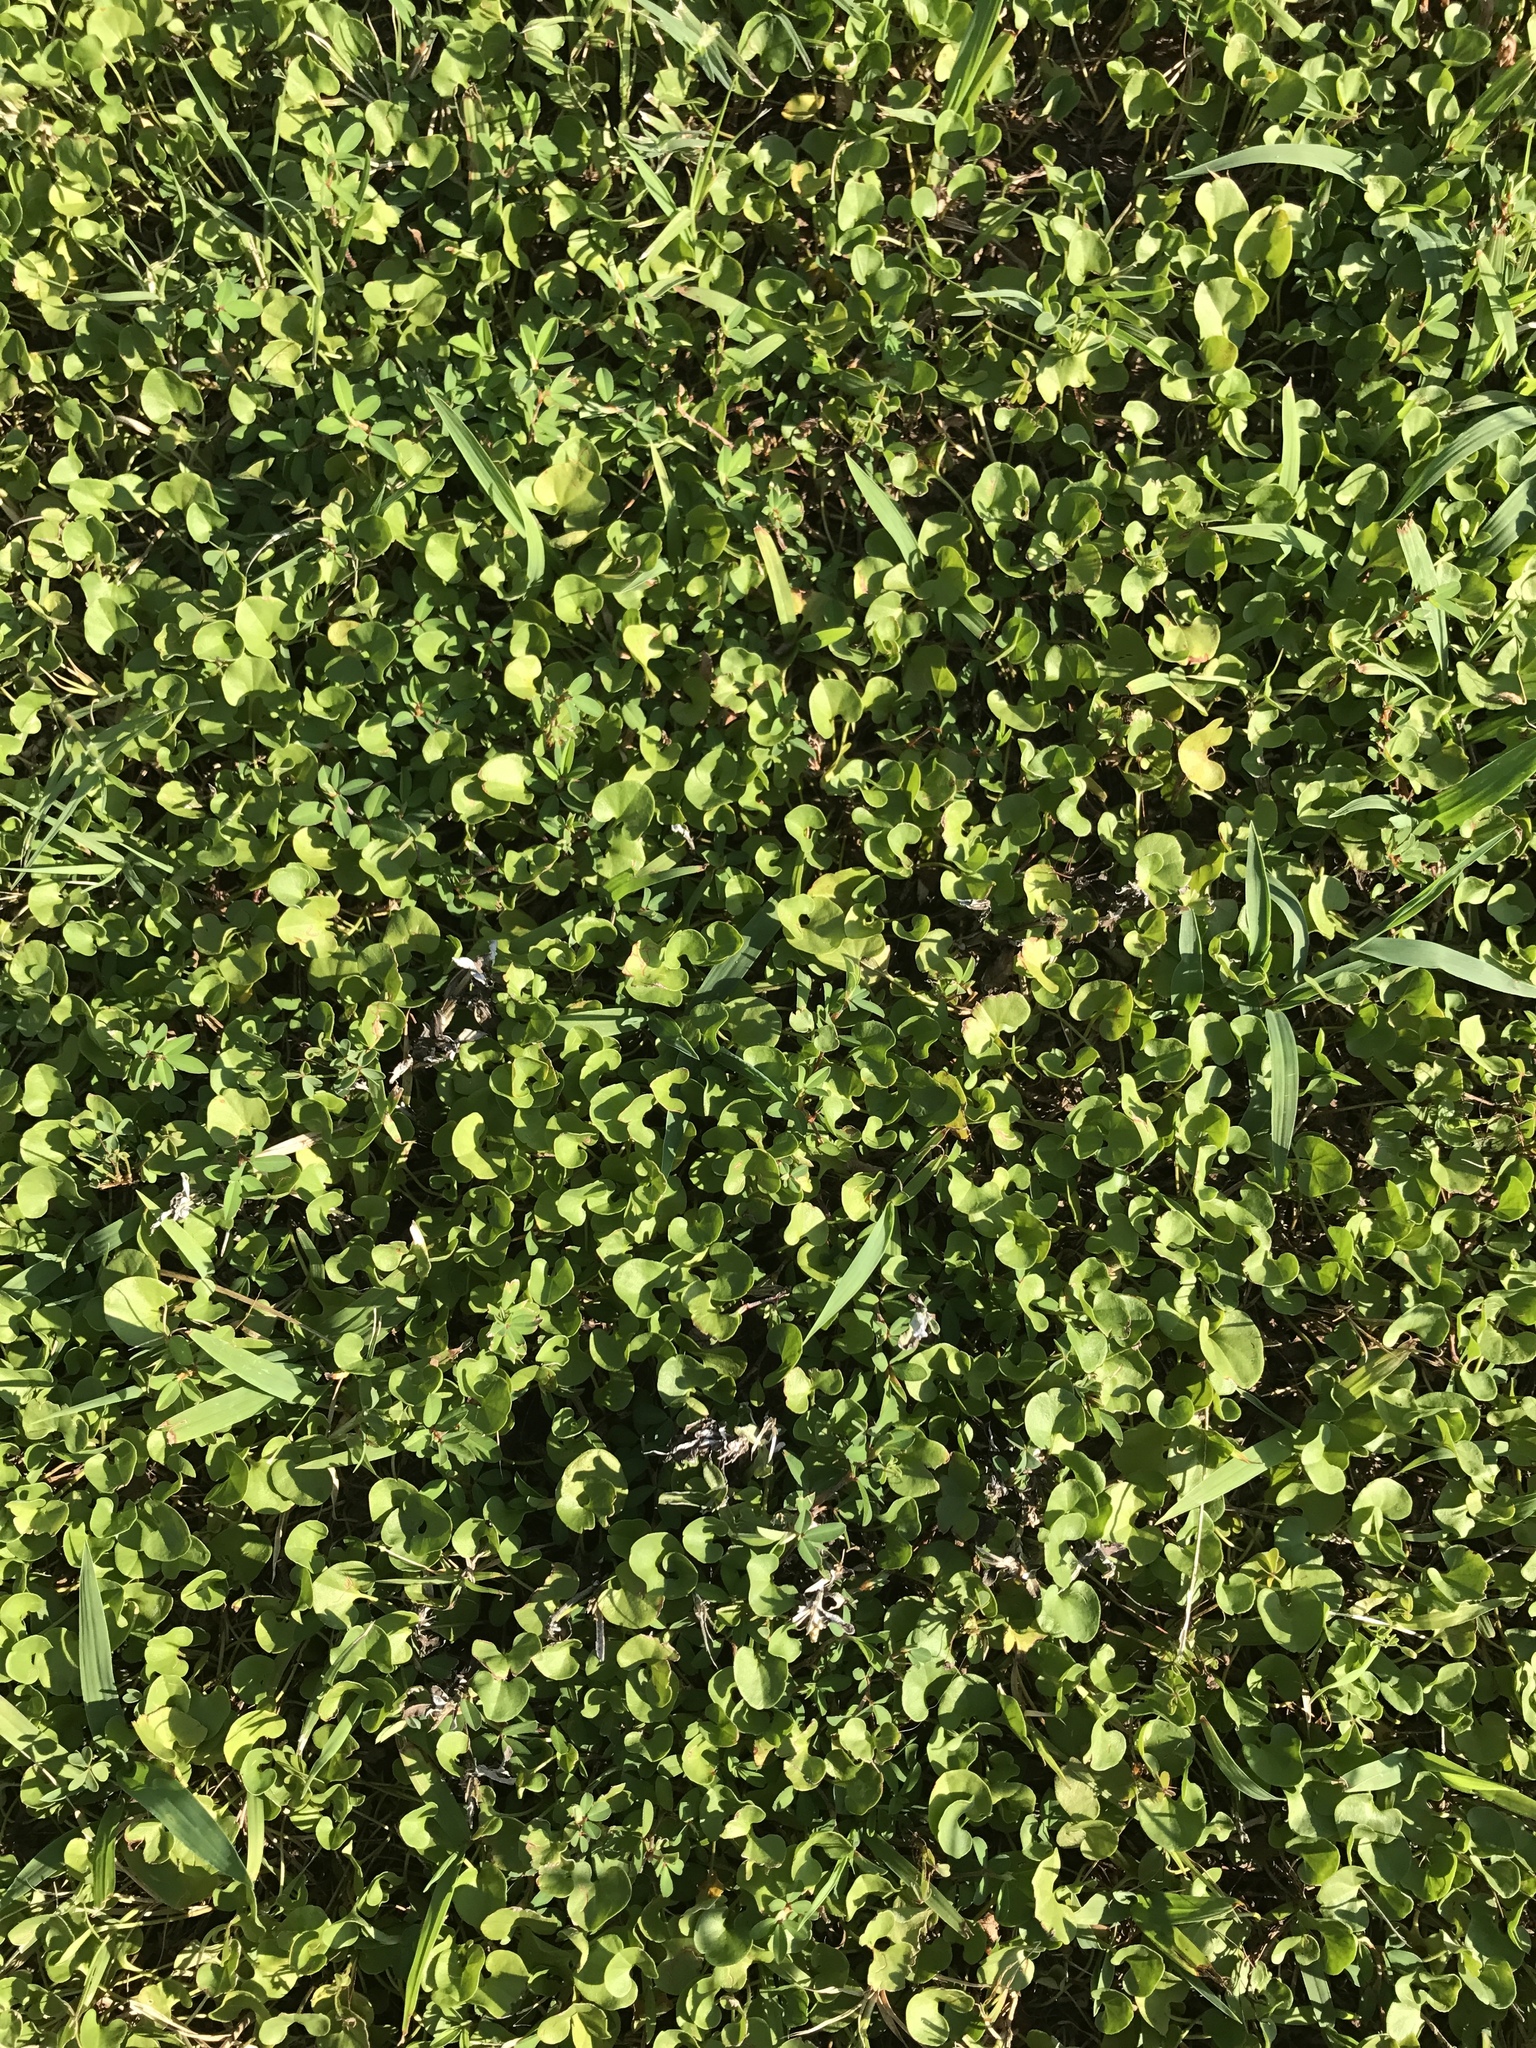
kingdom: Plantae
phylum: Tracheophyta
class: Magnoliopsida
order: Solanales
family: Convolvulaceae
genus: Dichondra
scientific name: Dichondra carolinensis
